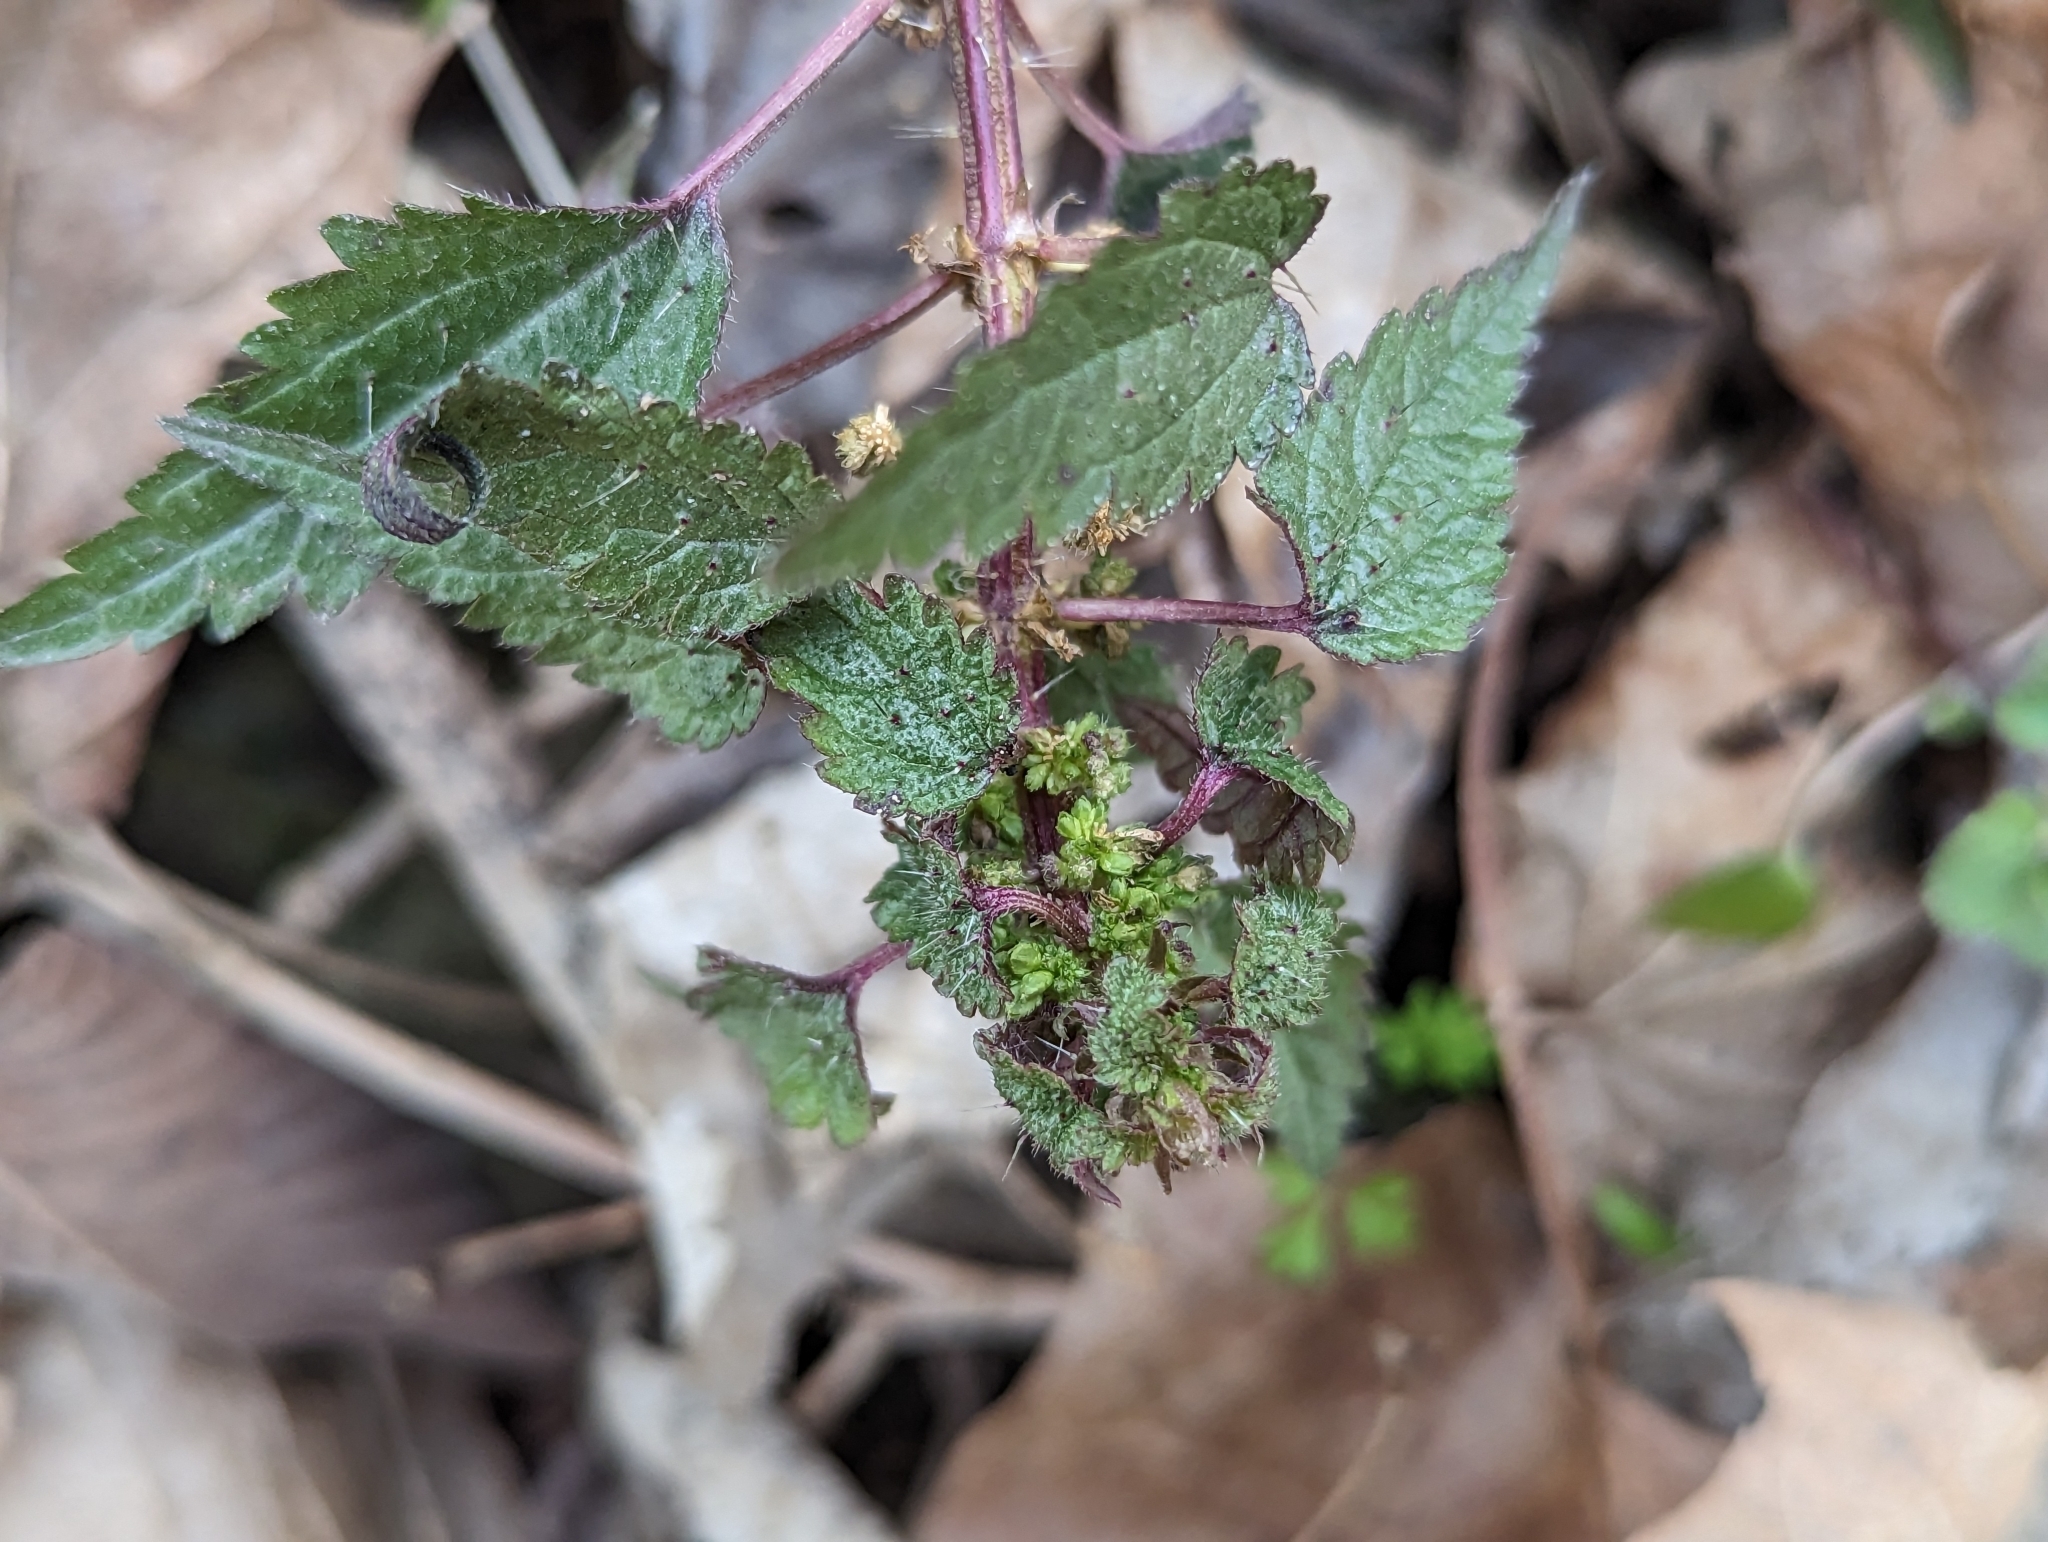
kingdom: Plantae
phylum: Tracheophyta
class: Magnoliopsida
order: Rosales
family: Urticaceae
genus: Urtica
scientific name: Urtica chamaedryoides
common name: Heart-leaf nettle
